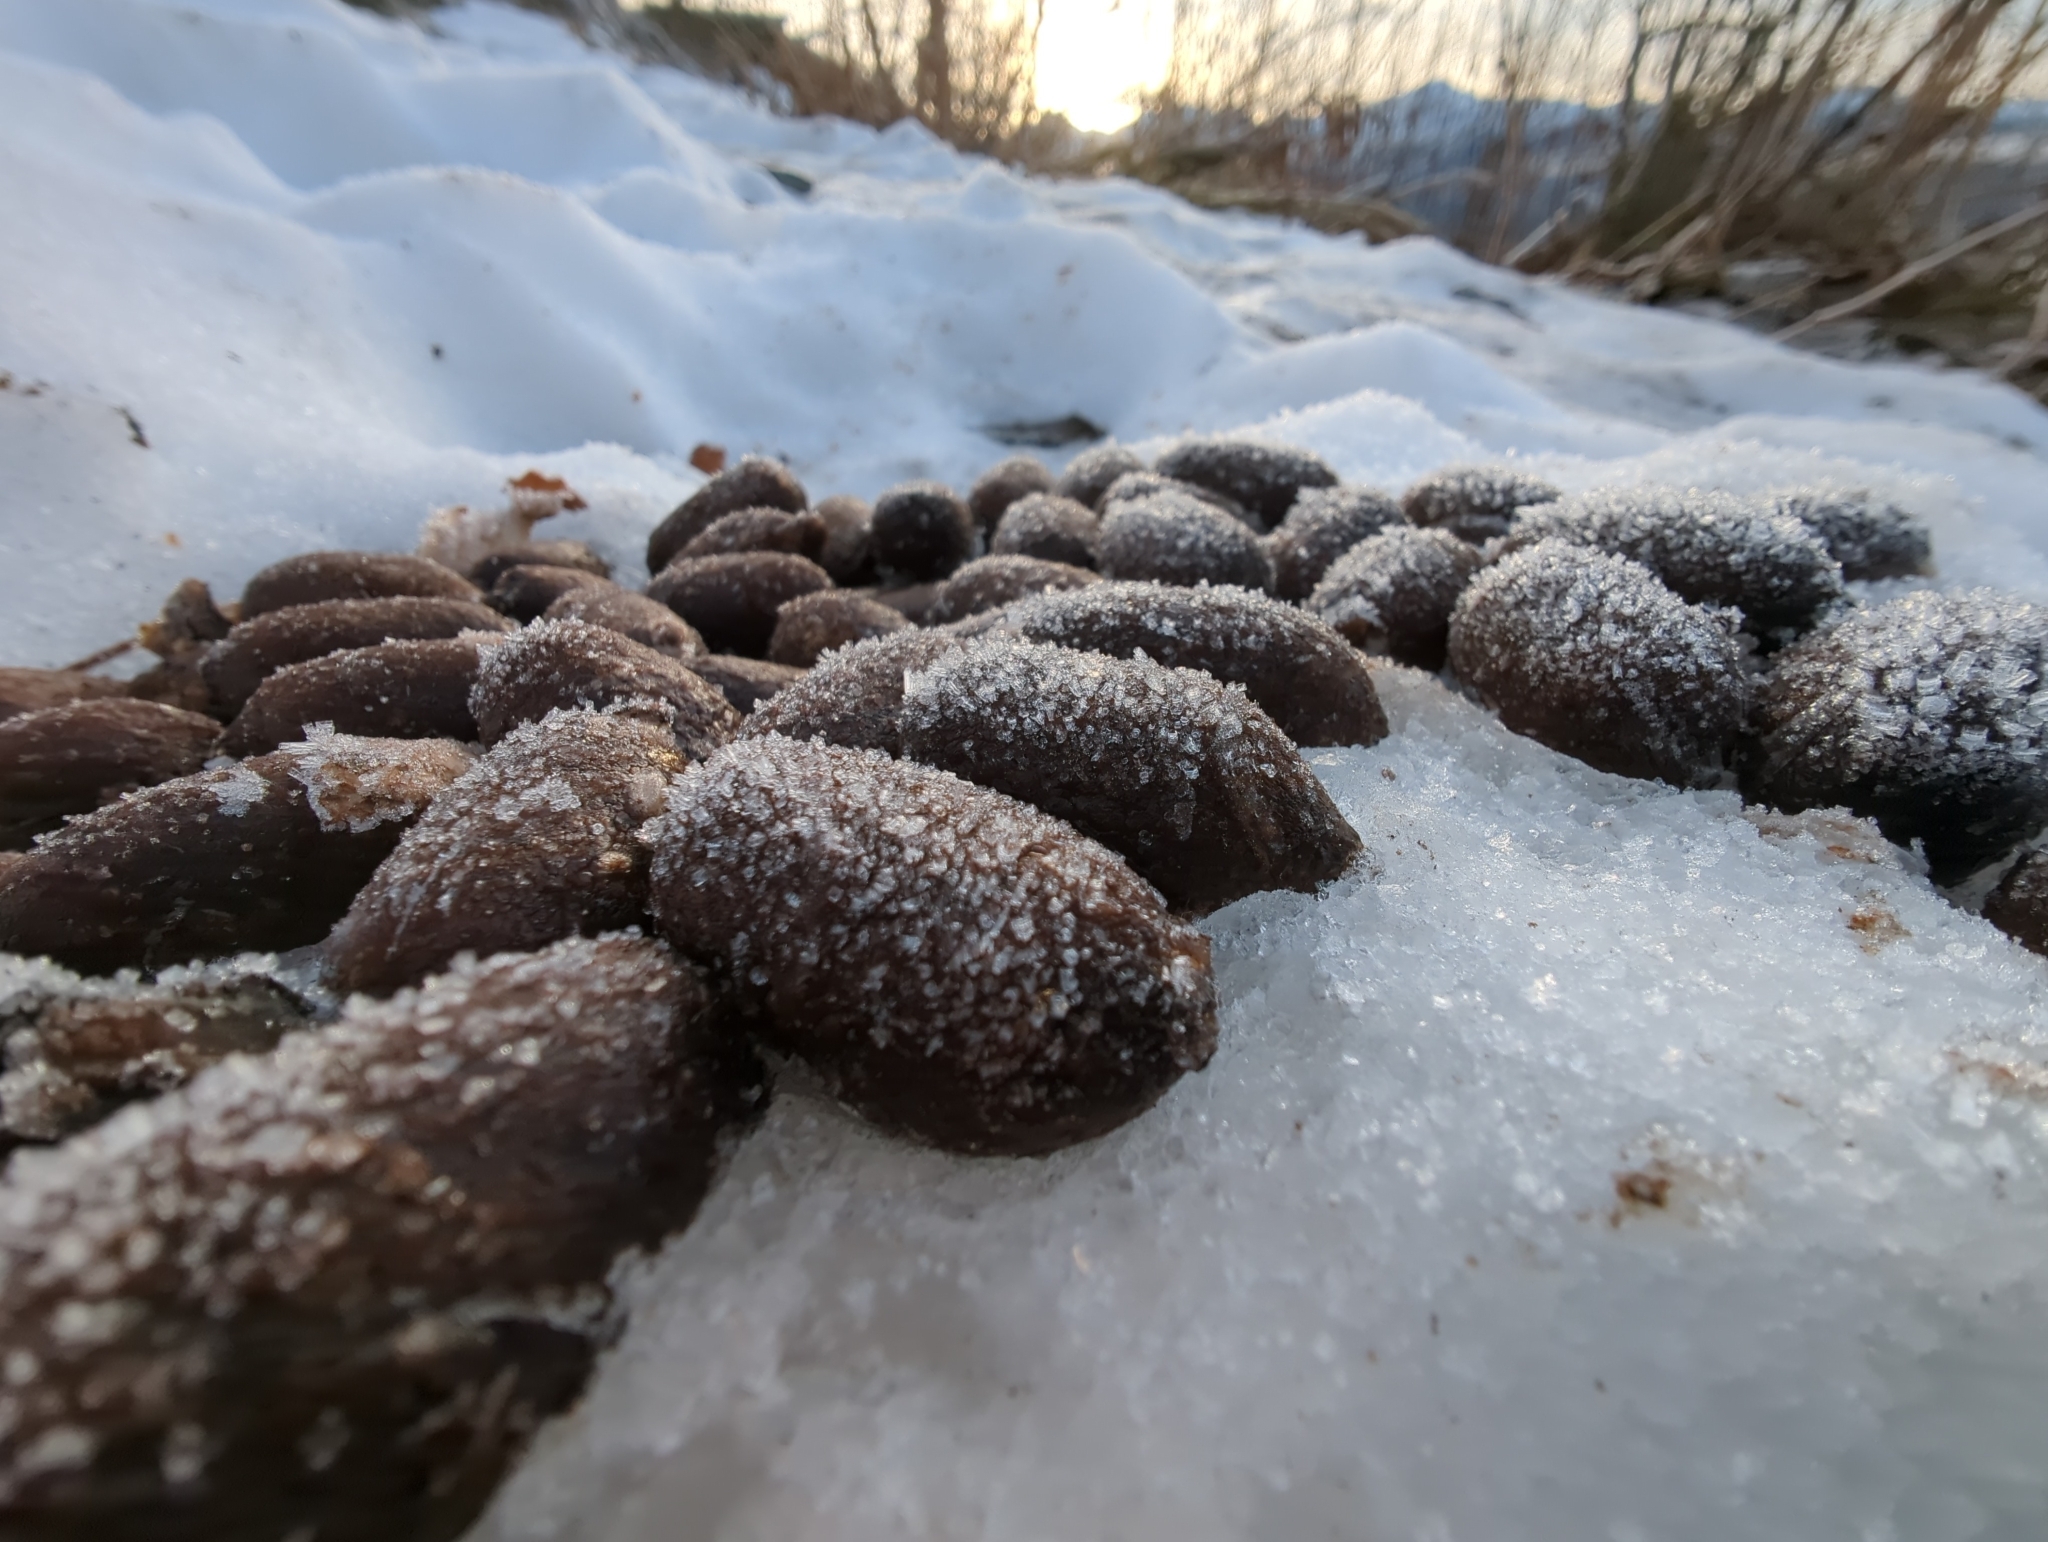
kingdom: Animalia
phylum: Chordata
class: Mammalia
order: Artiodactyla
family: Cervidae
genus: Alces
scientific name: Alces alces
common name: Moose
